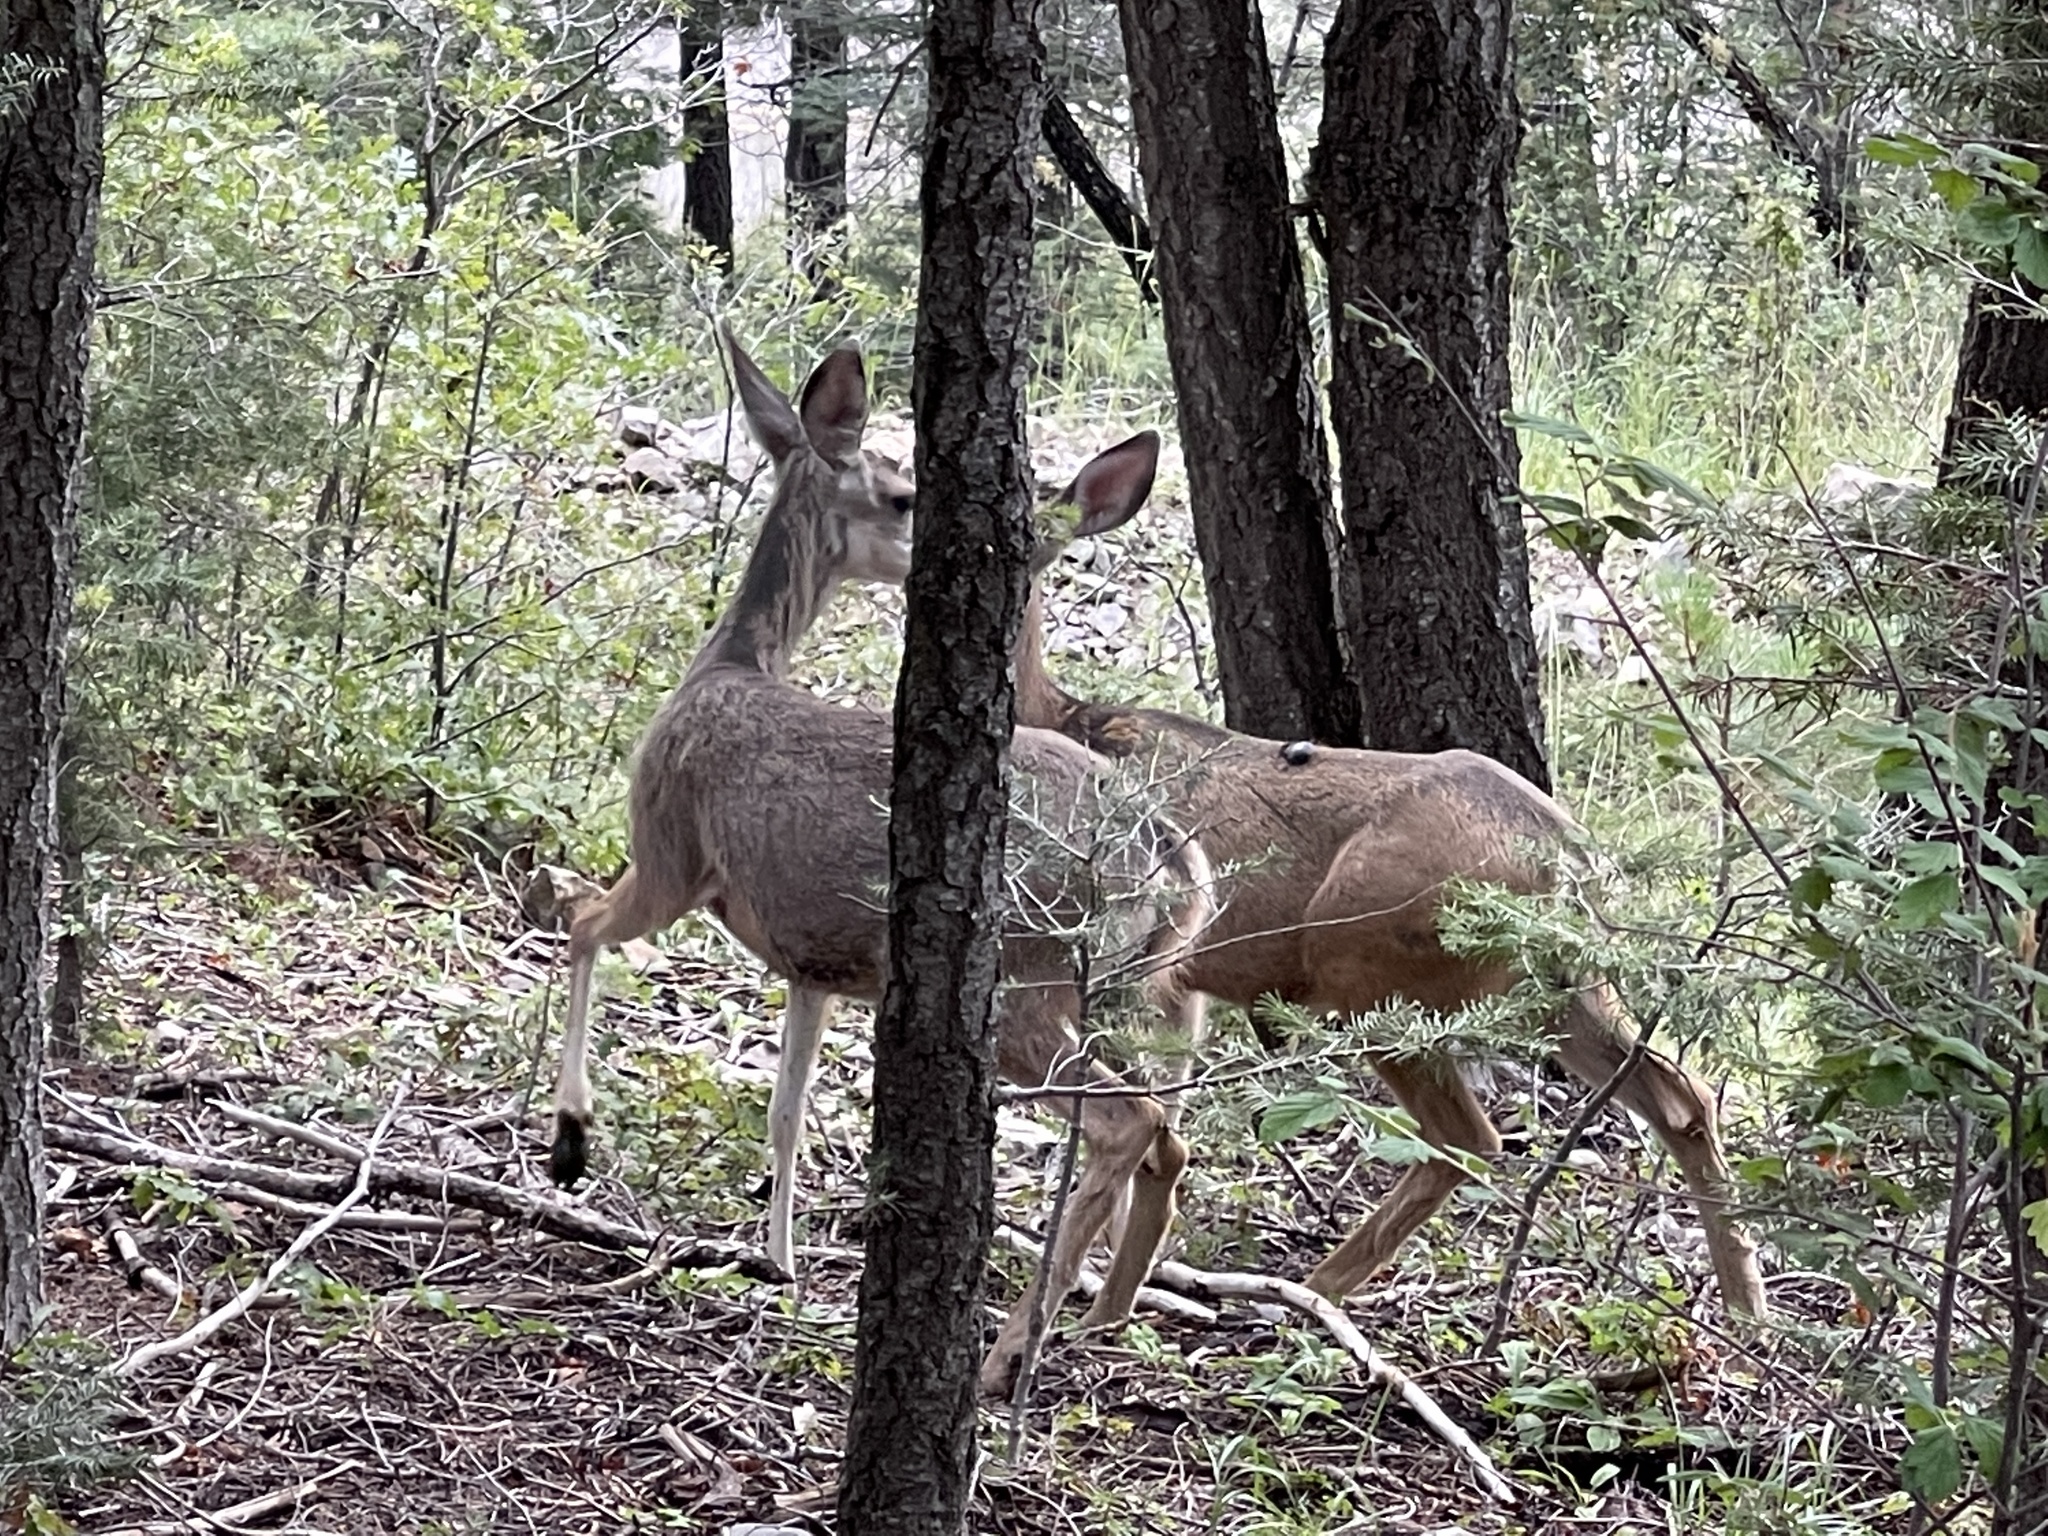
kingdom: Animalia
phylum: Chordata
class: Mammalia
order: Artiodactyla
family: Cervidae
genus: Odocoileus
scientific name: Odocoileus hemionus
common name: Mule deer
